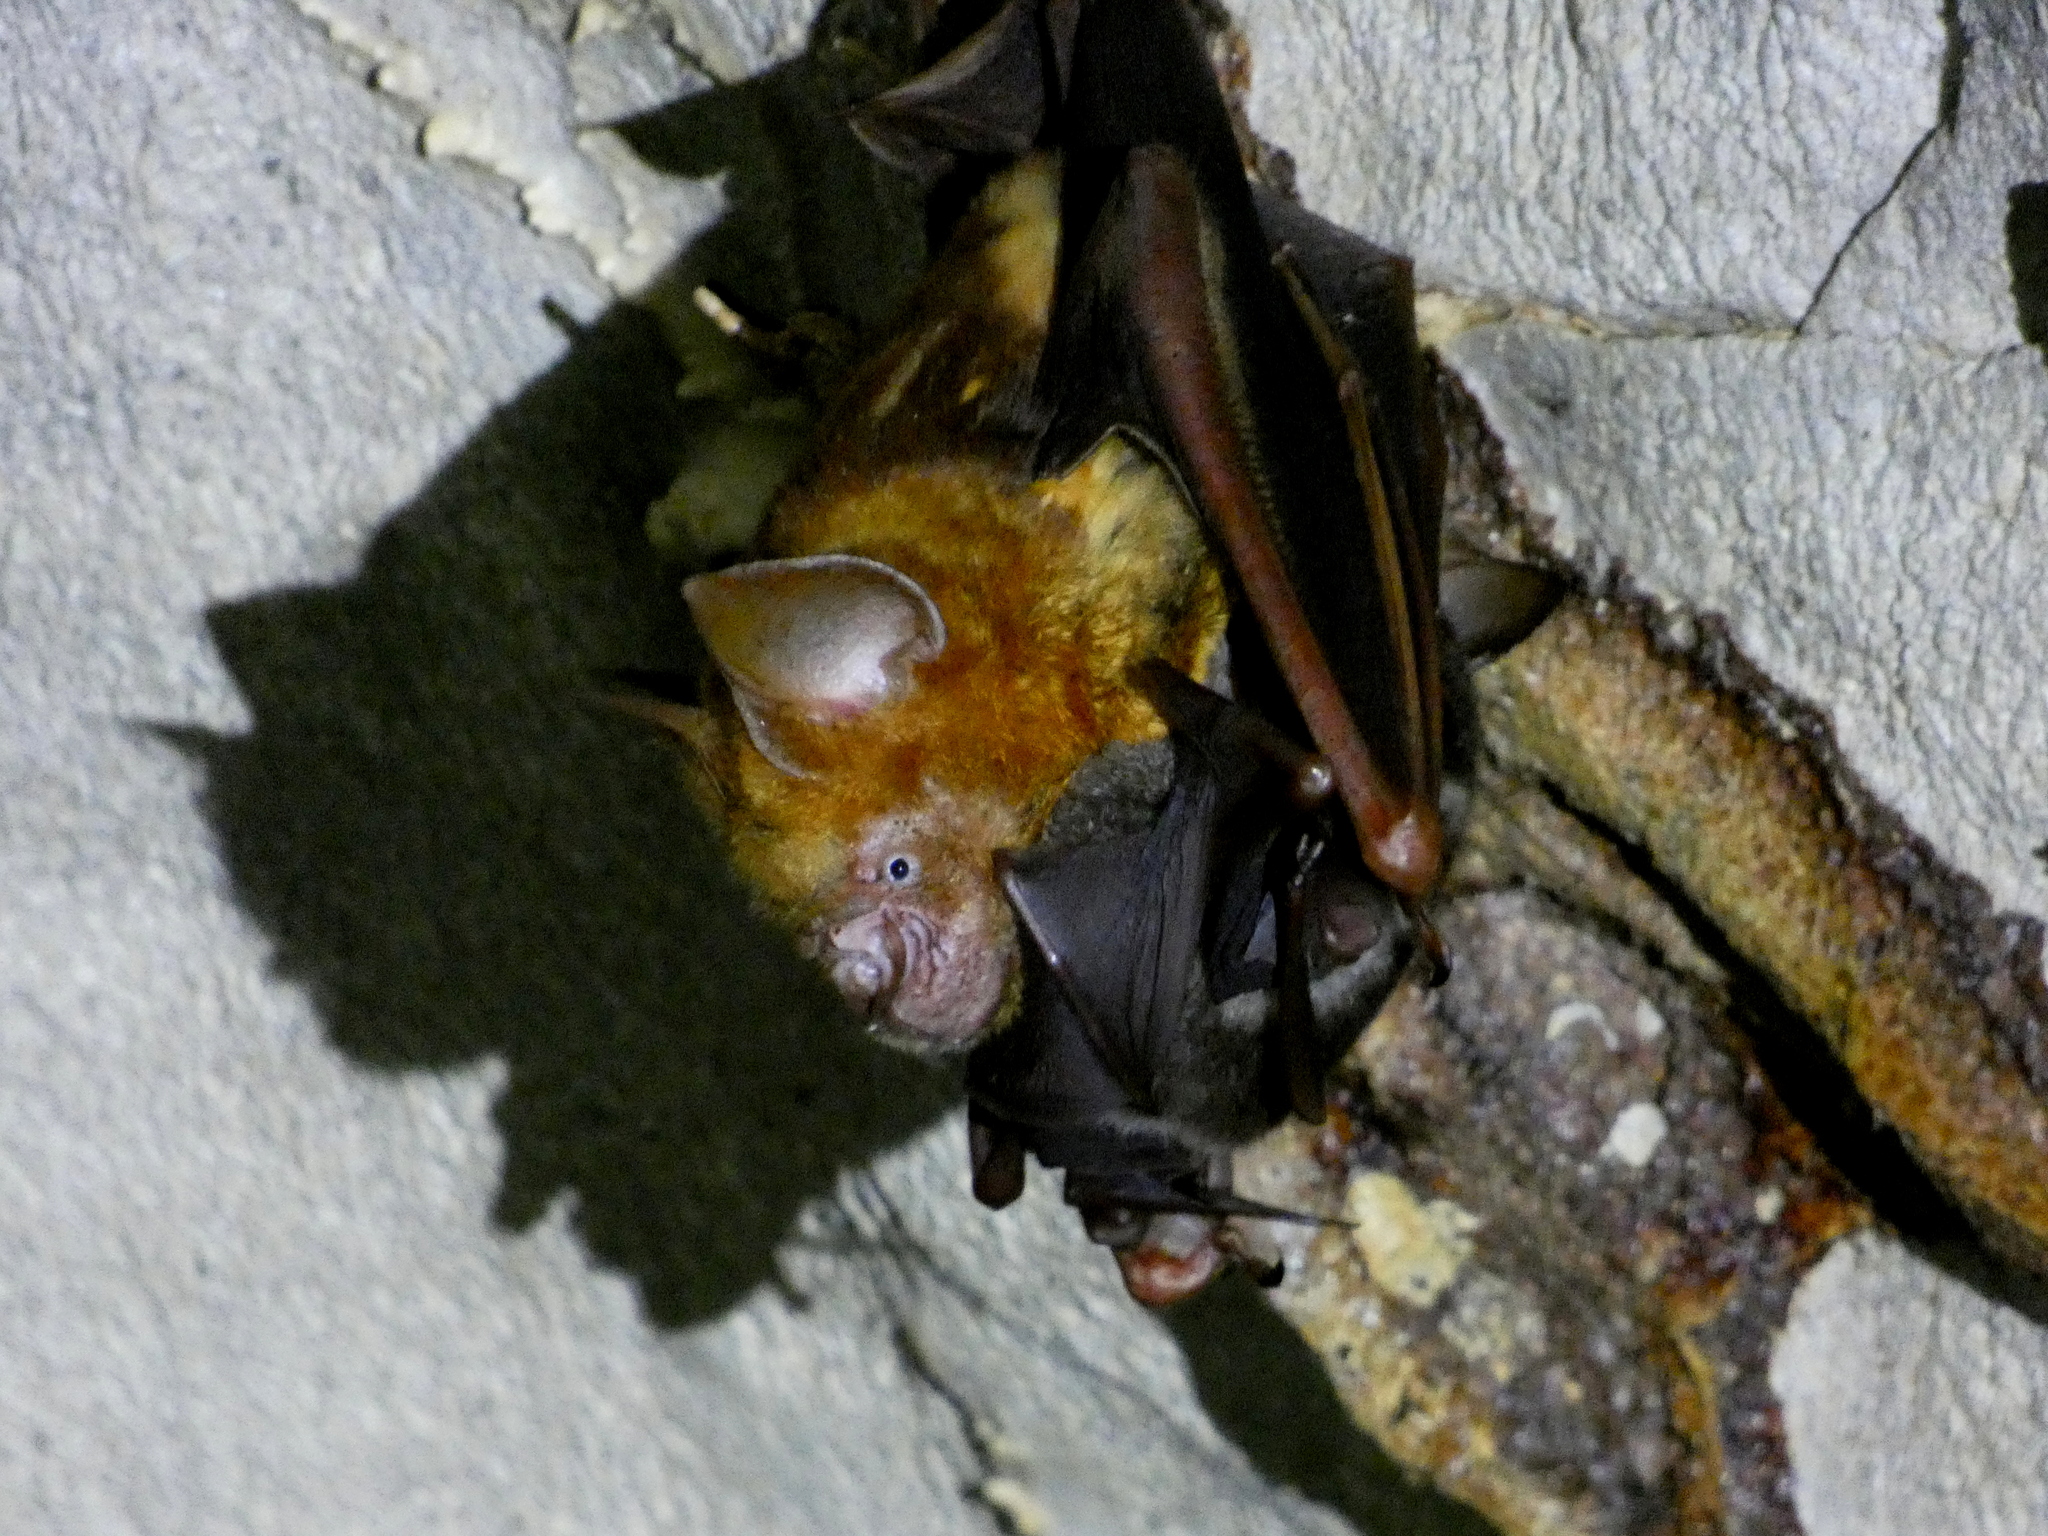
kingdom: Animalia
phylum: Chordata
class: Mammalia
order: Chiroptera
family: Hipposideridae
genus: Hipposideros
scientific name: Hipposideros diadema
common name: Diadem leaf-nosed bat
